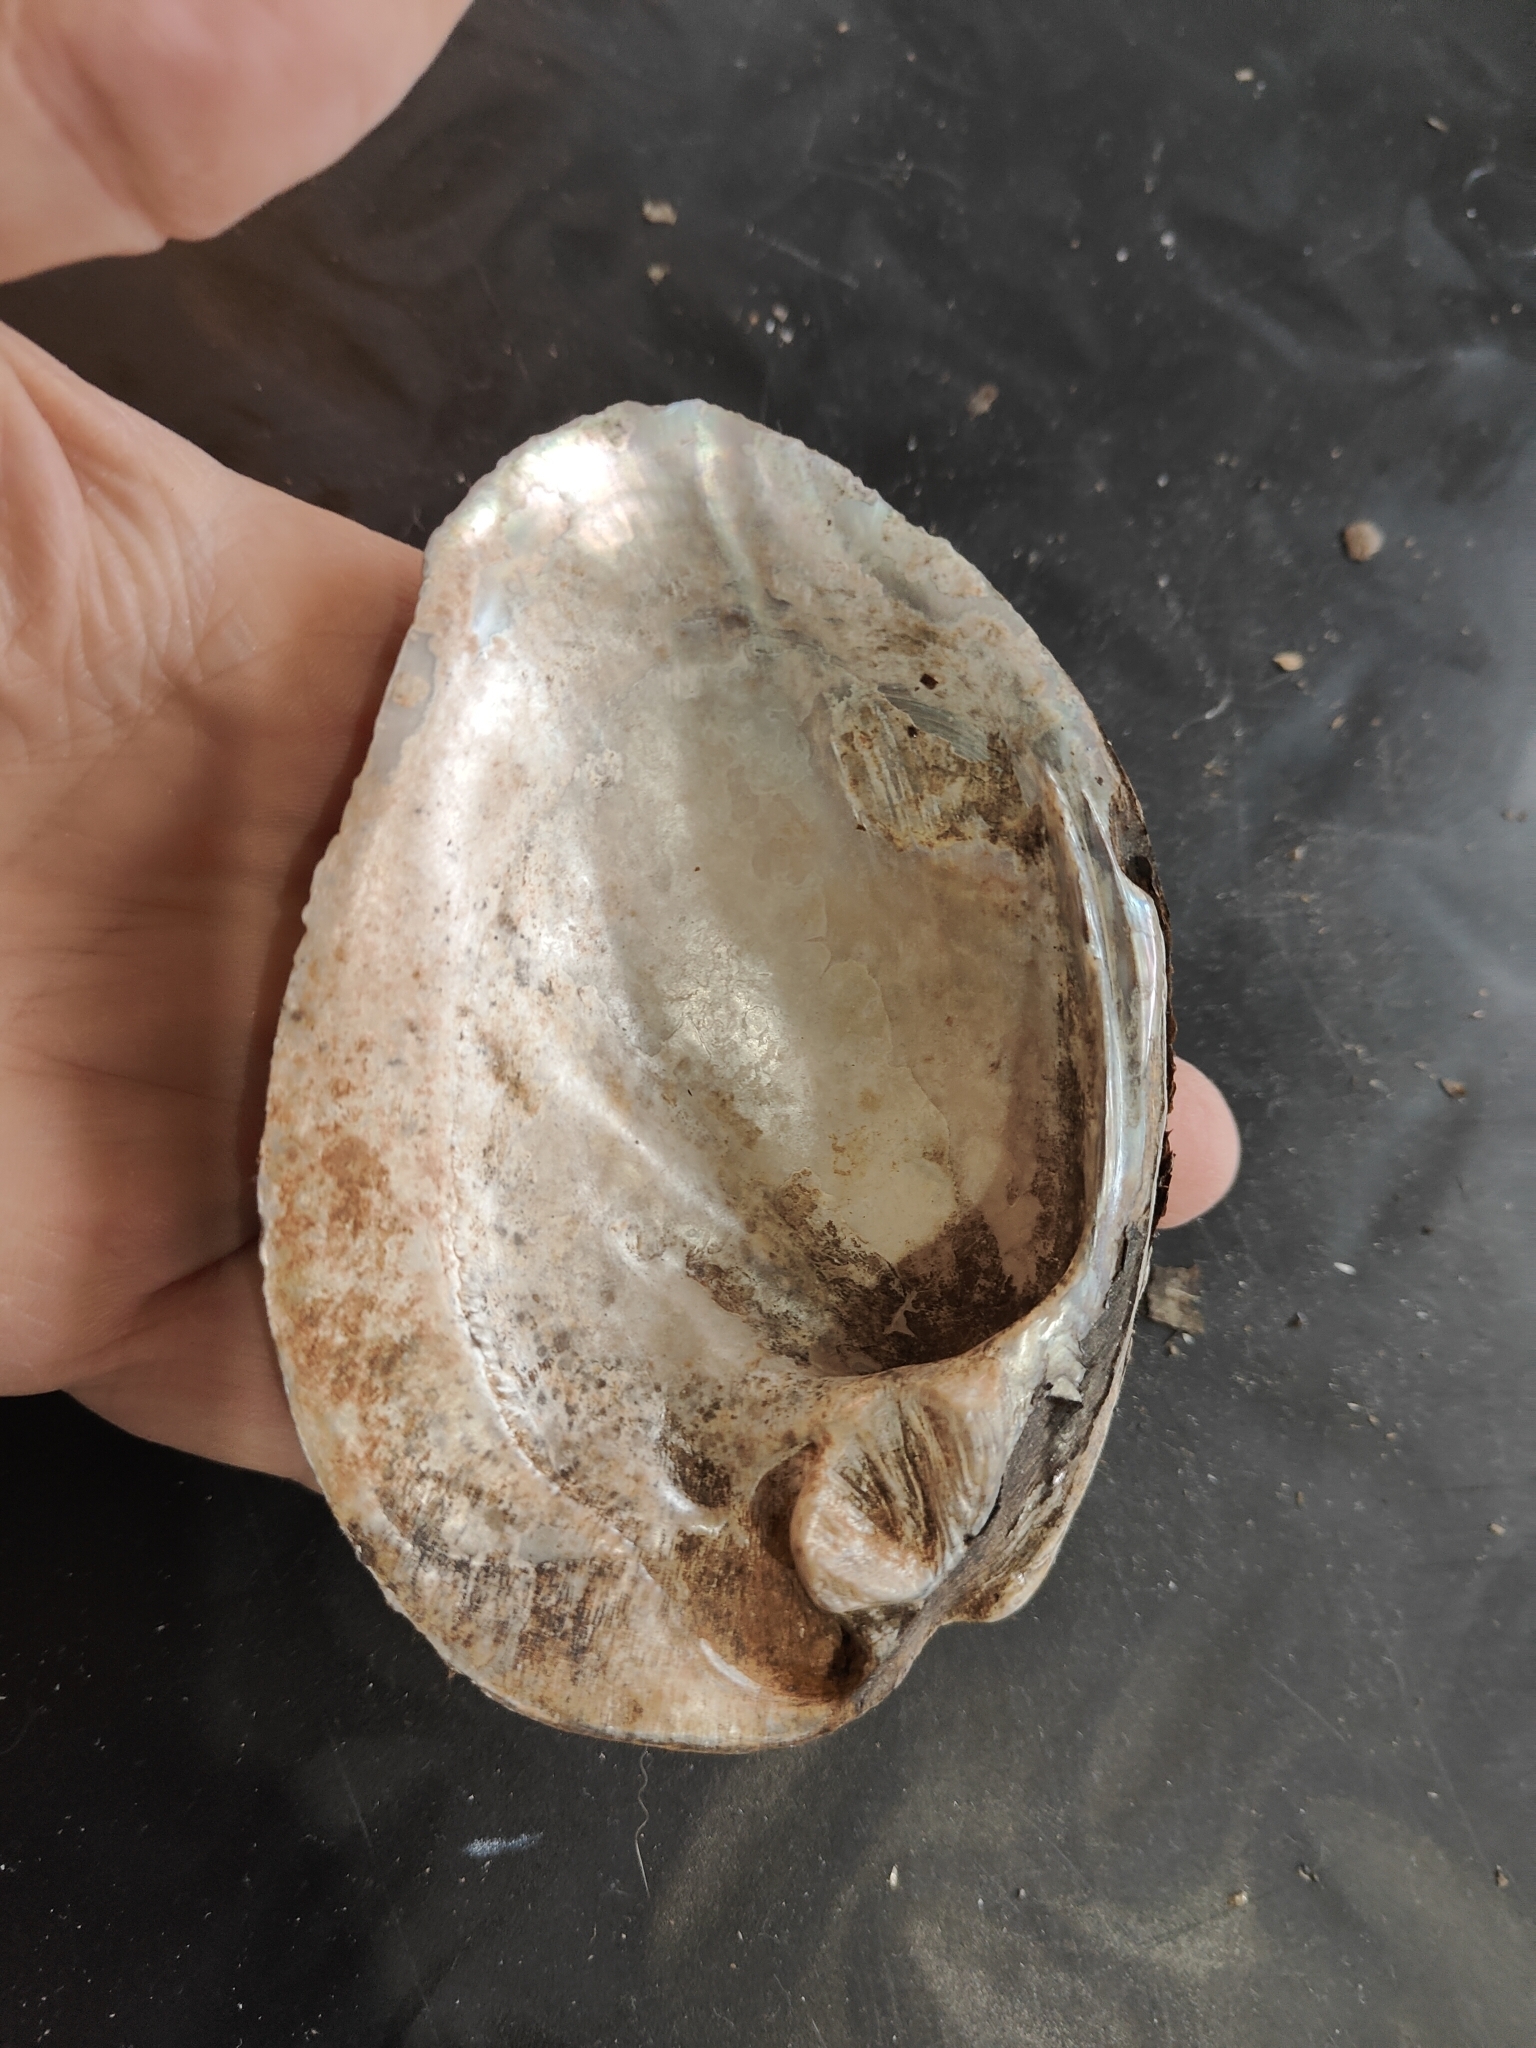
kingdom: Animalia
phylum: Mollusca
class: Bivalvia
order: Unionida
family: Unionidae
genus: Amblema
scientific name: Amblema plicata
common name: Threeridge
